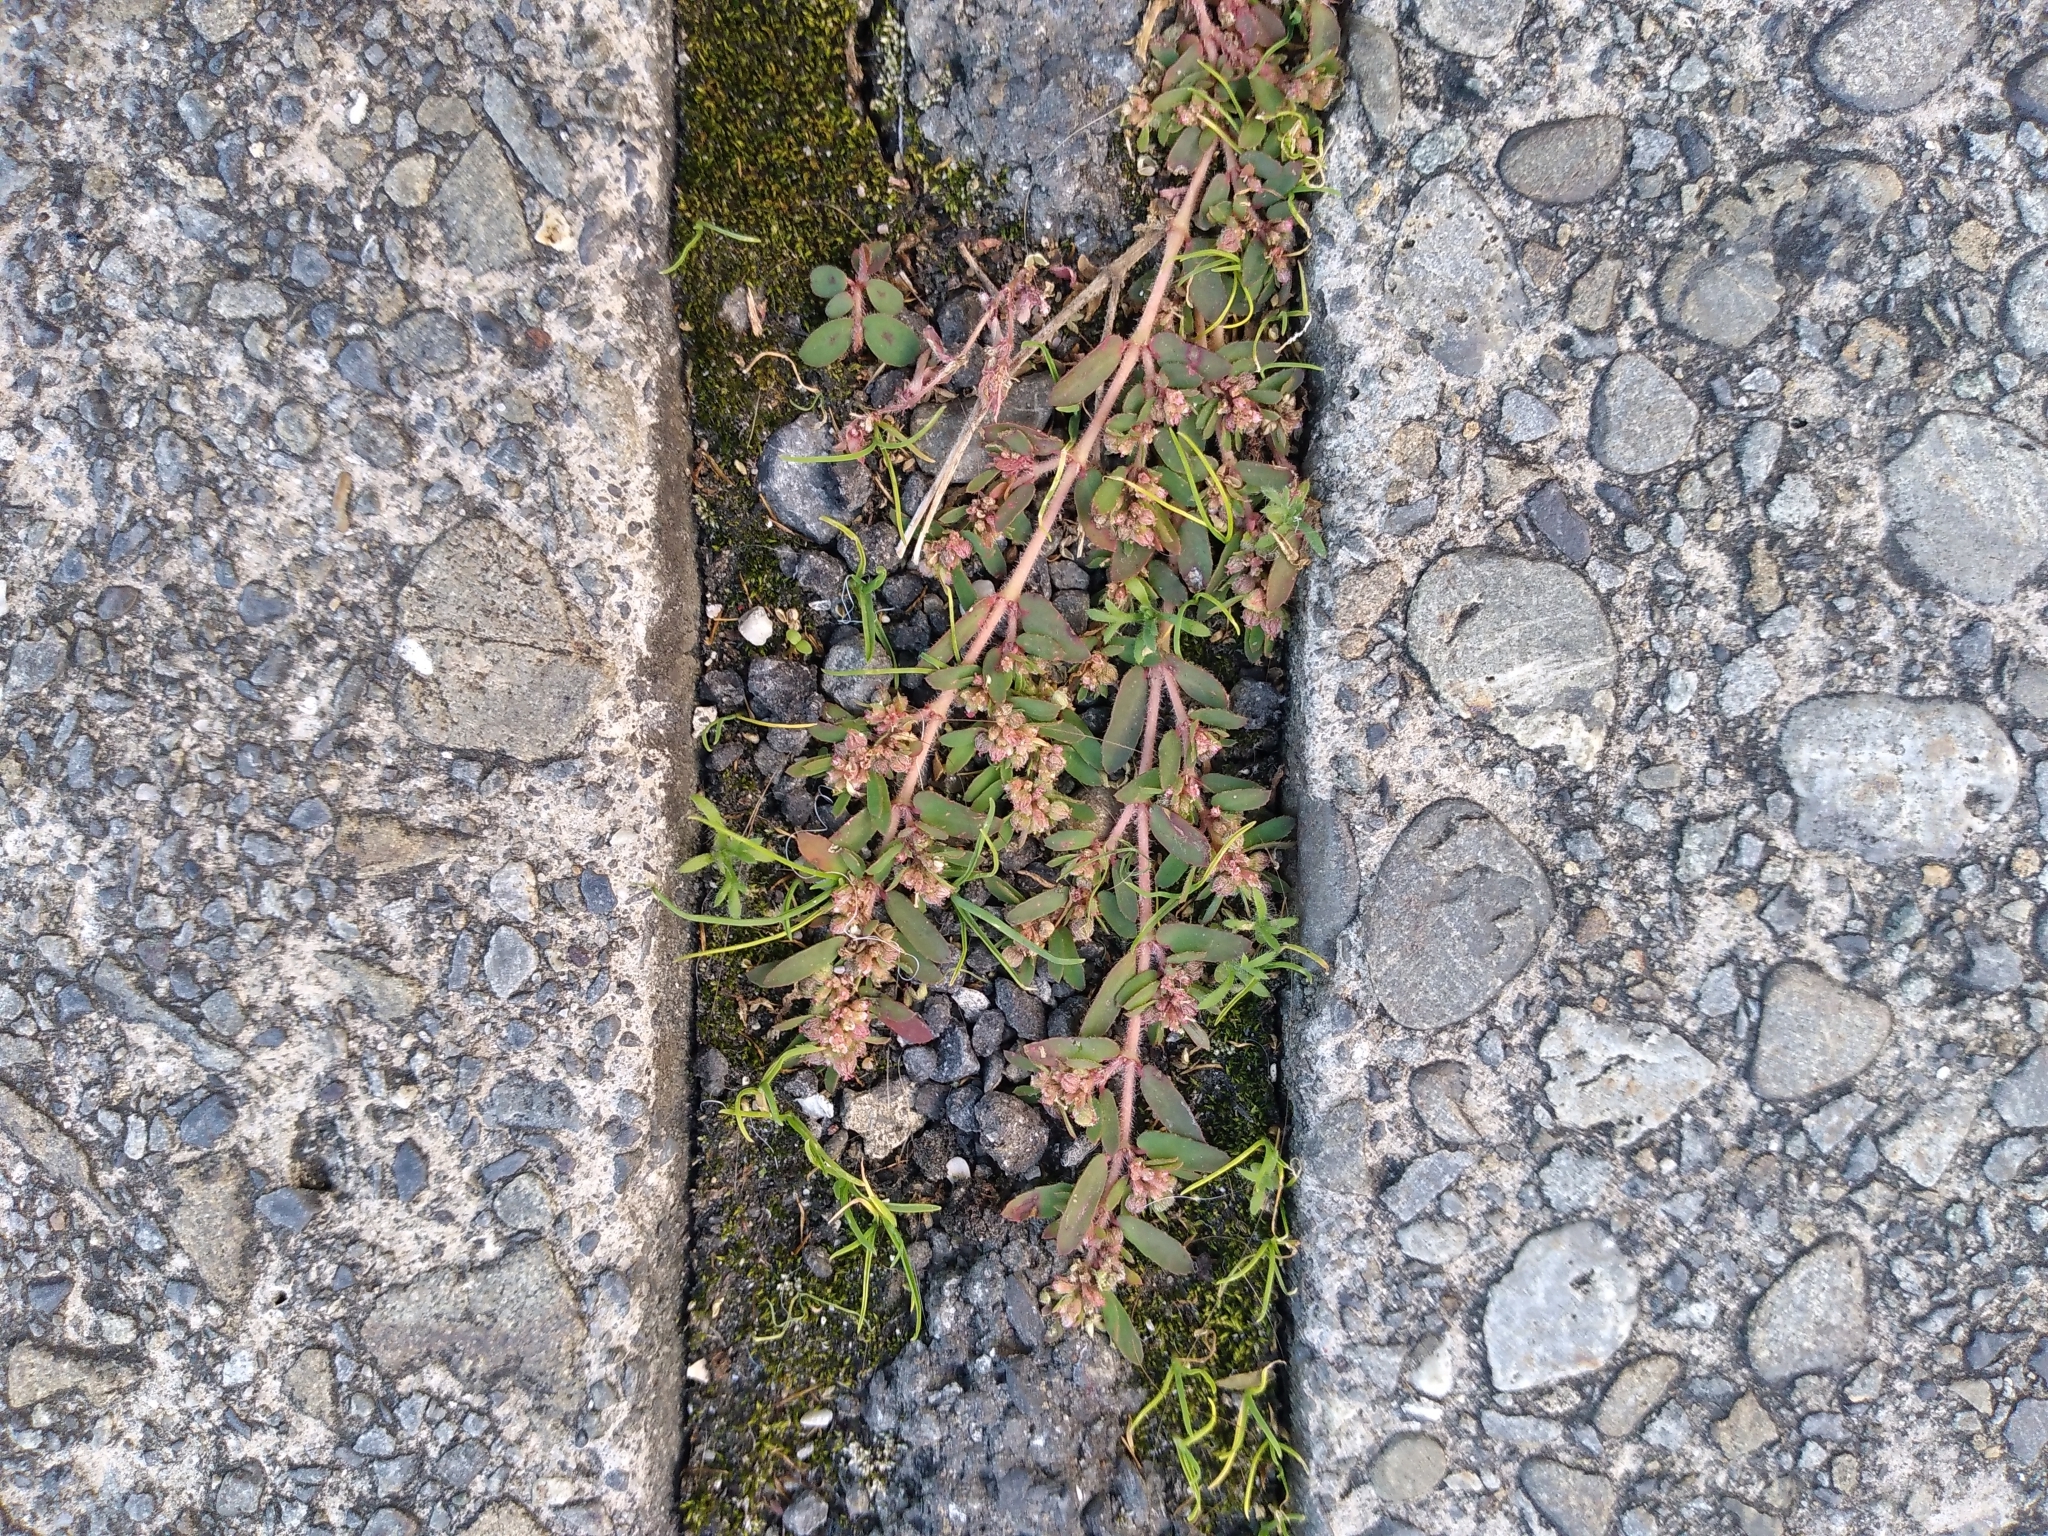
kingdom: Plantae
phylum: Tracheophyta
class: Magnoliopsida
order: Malpighiales
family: Euphorbiaceae
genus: Euphorbia
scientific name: Euphorbia maculata
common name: Spotted spurge
